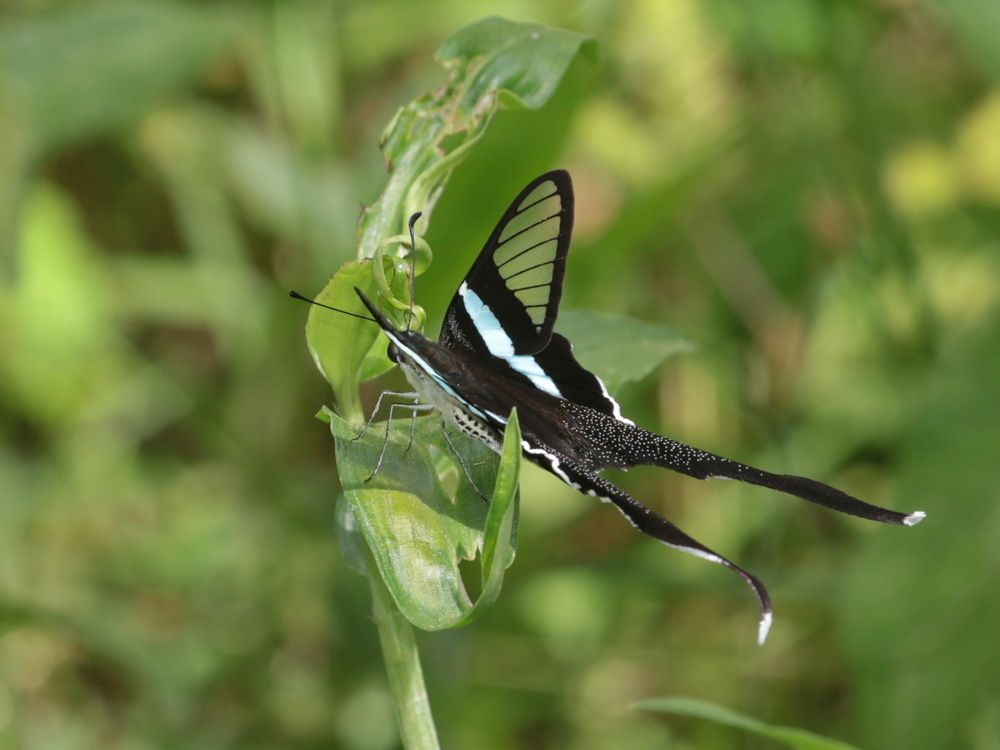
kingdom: Animalia
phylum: Arthropoda
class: Insecta
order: Lepidoptera
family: Papilionidae
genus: Lamproptera
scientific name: Lamproptera meges
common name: Green dragontail
